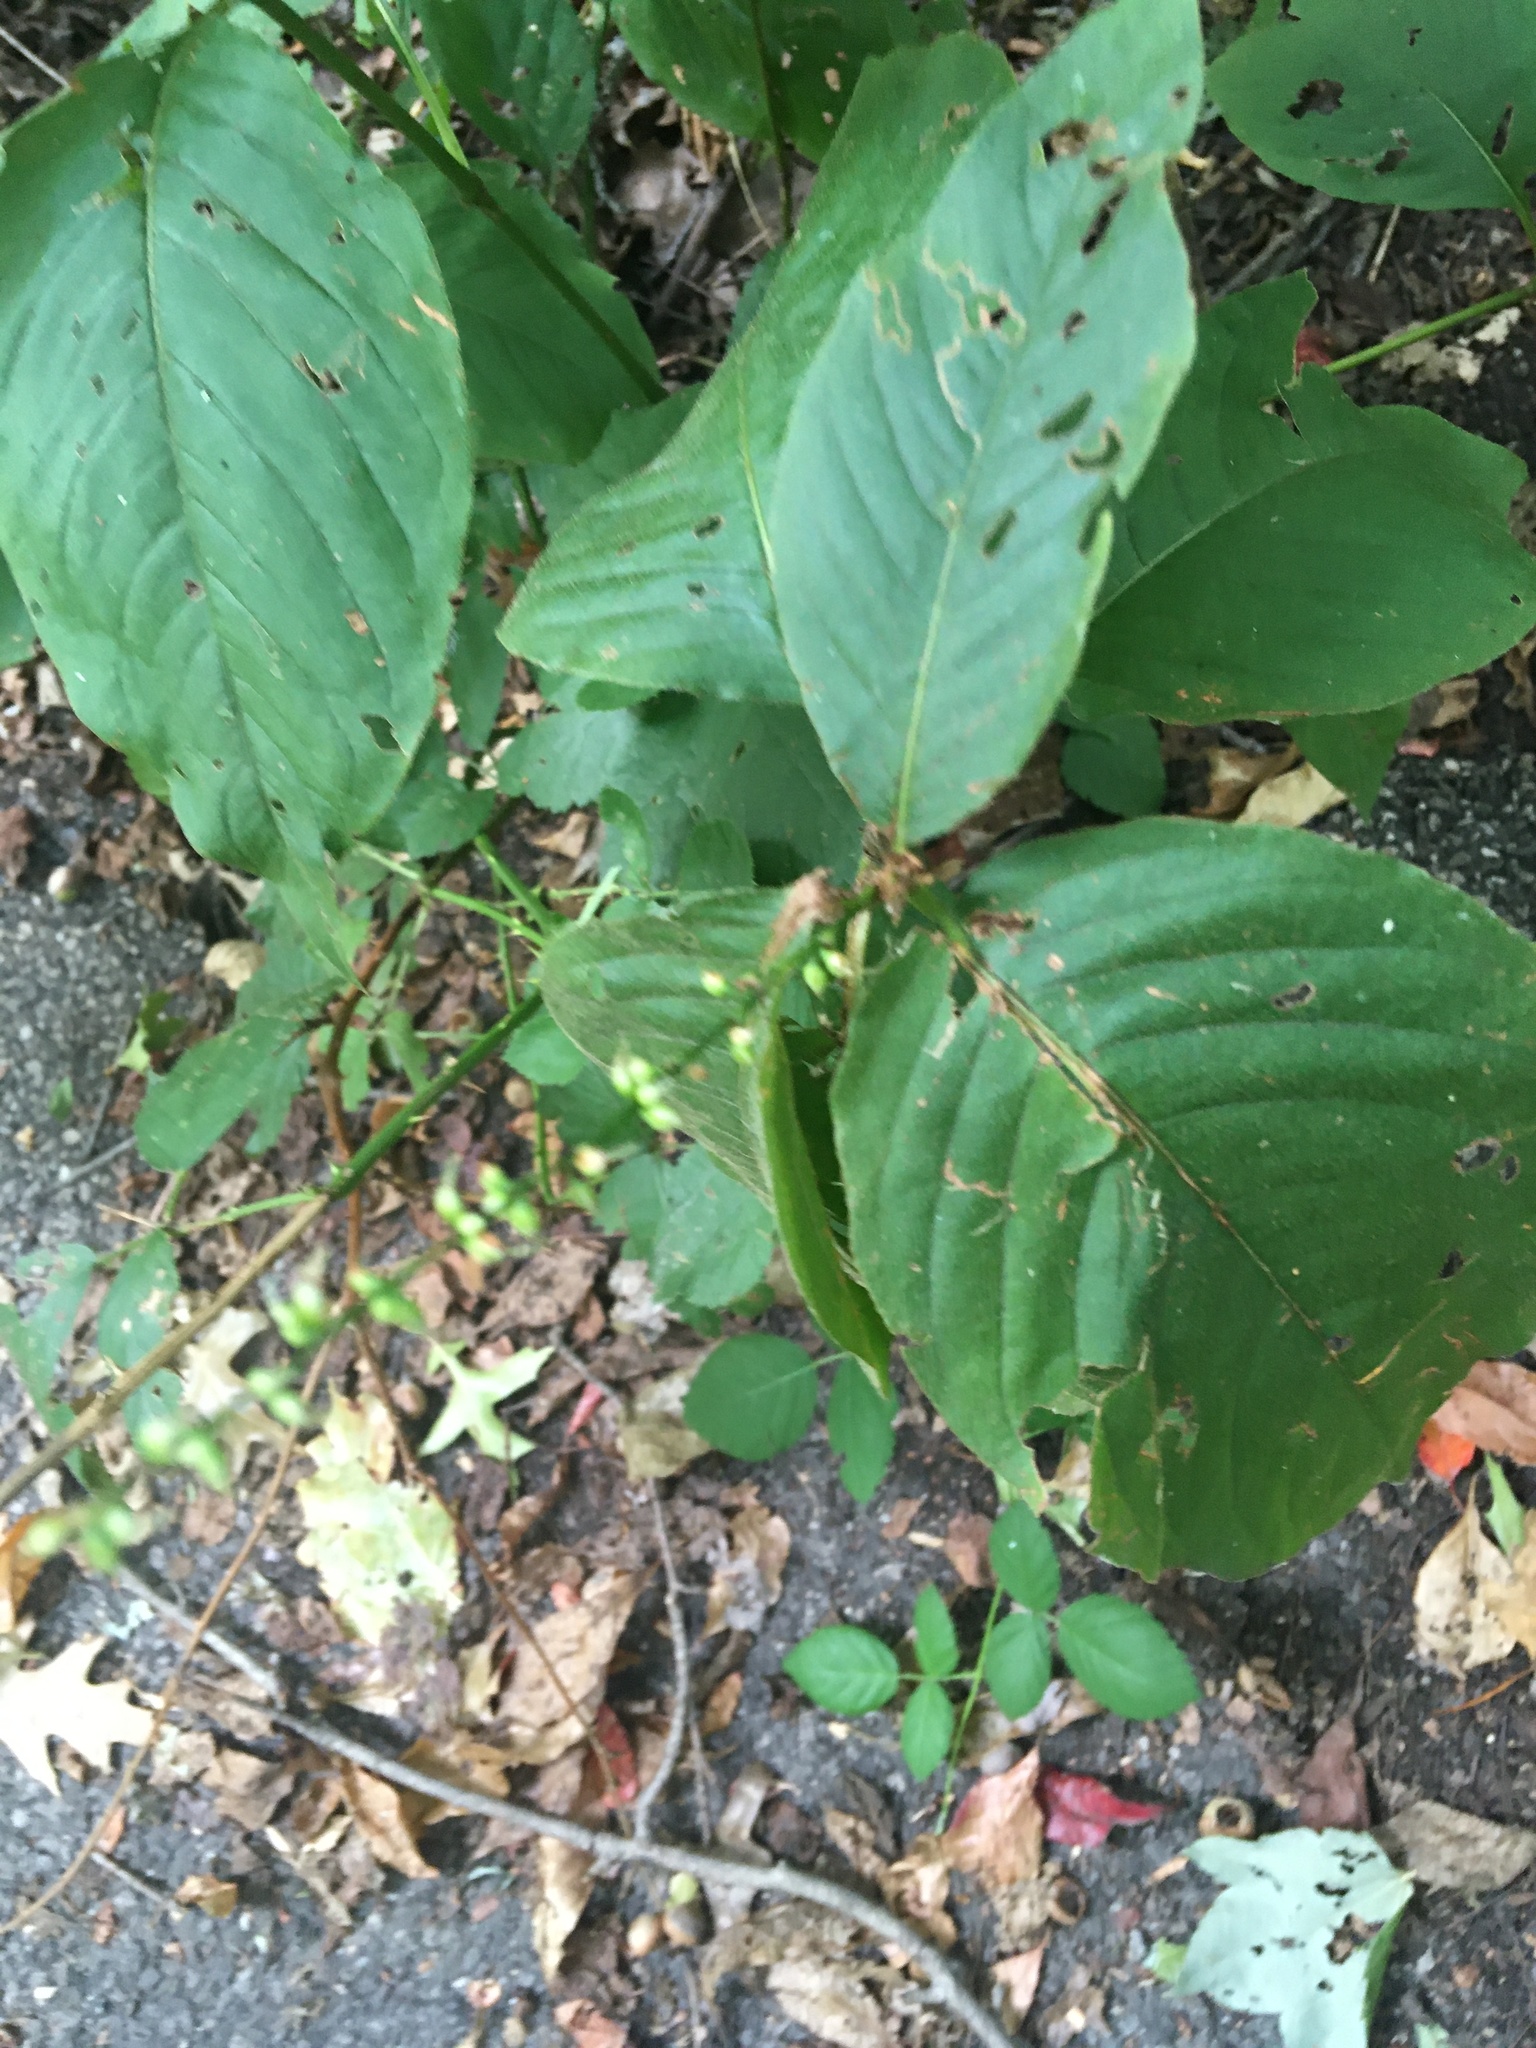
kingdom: Plantae
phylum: Tracheophyta
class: Magnoliopsida
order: Caryophyllales
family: Polygonaceae
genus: Persicaria
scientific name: Persicaria virginiana
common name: Jumpseed
